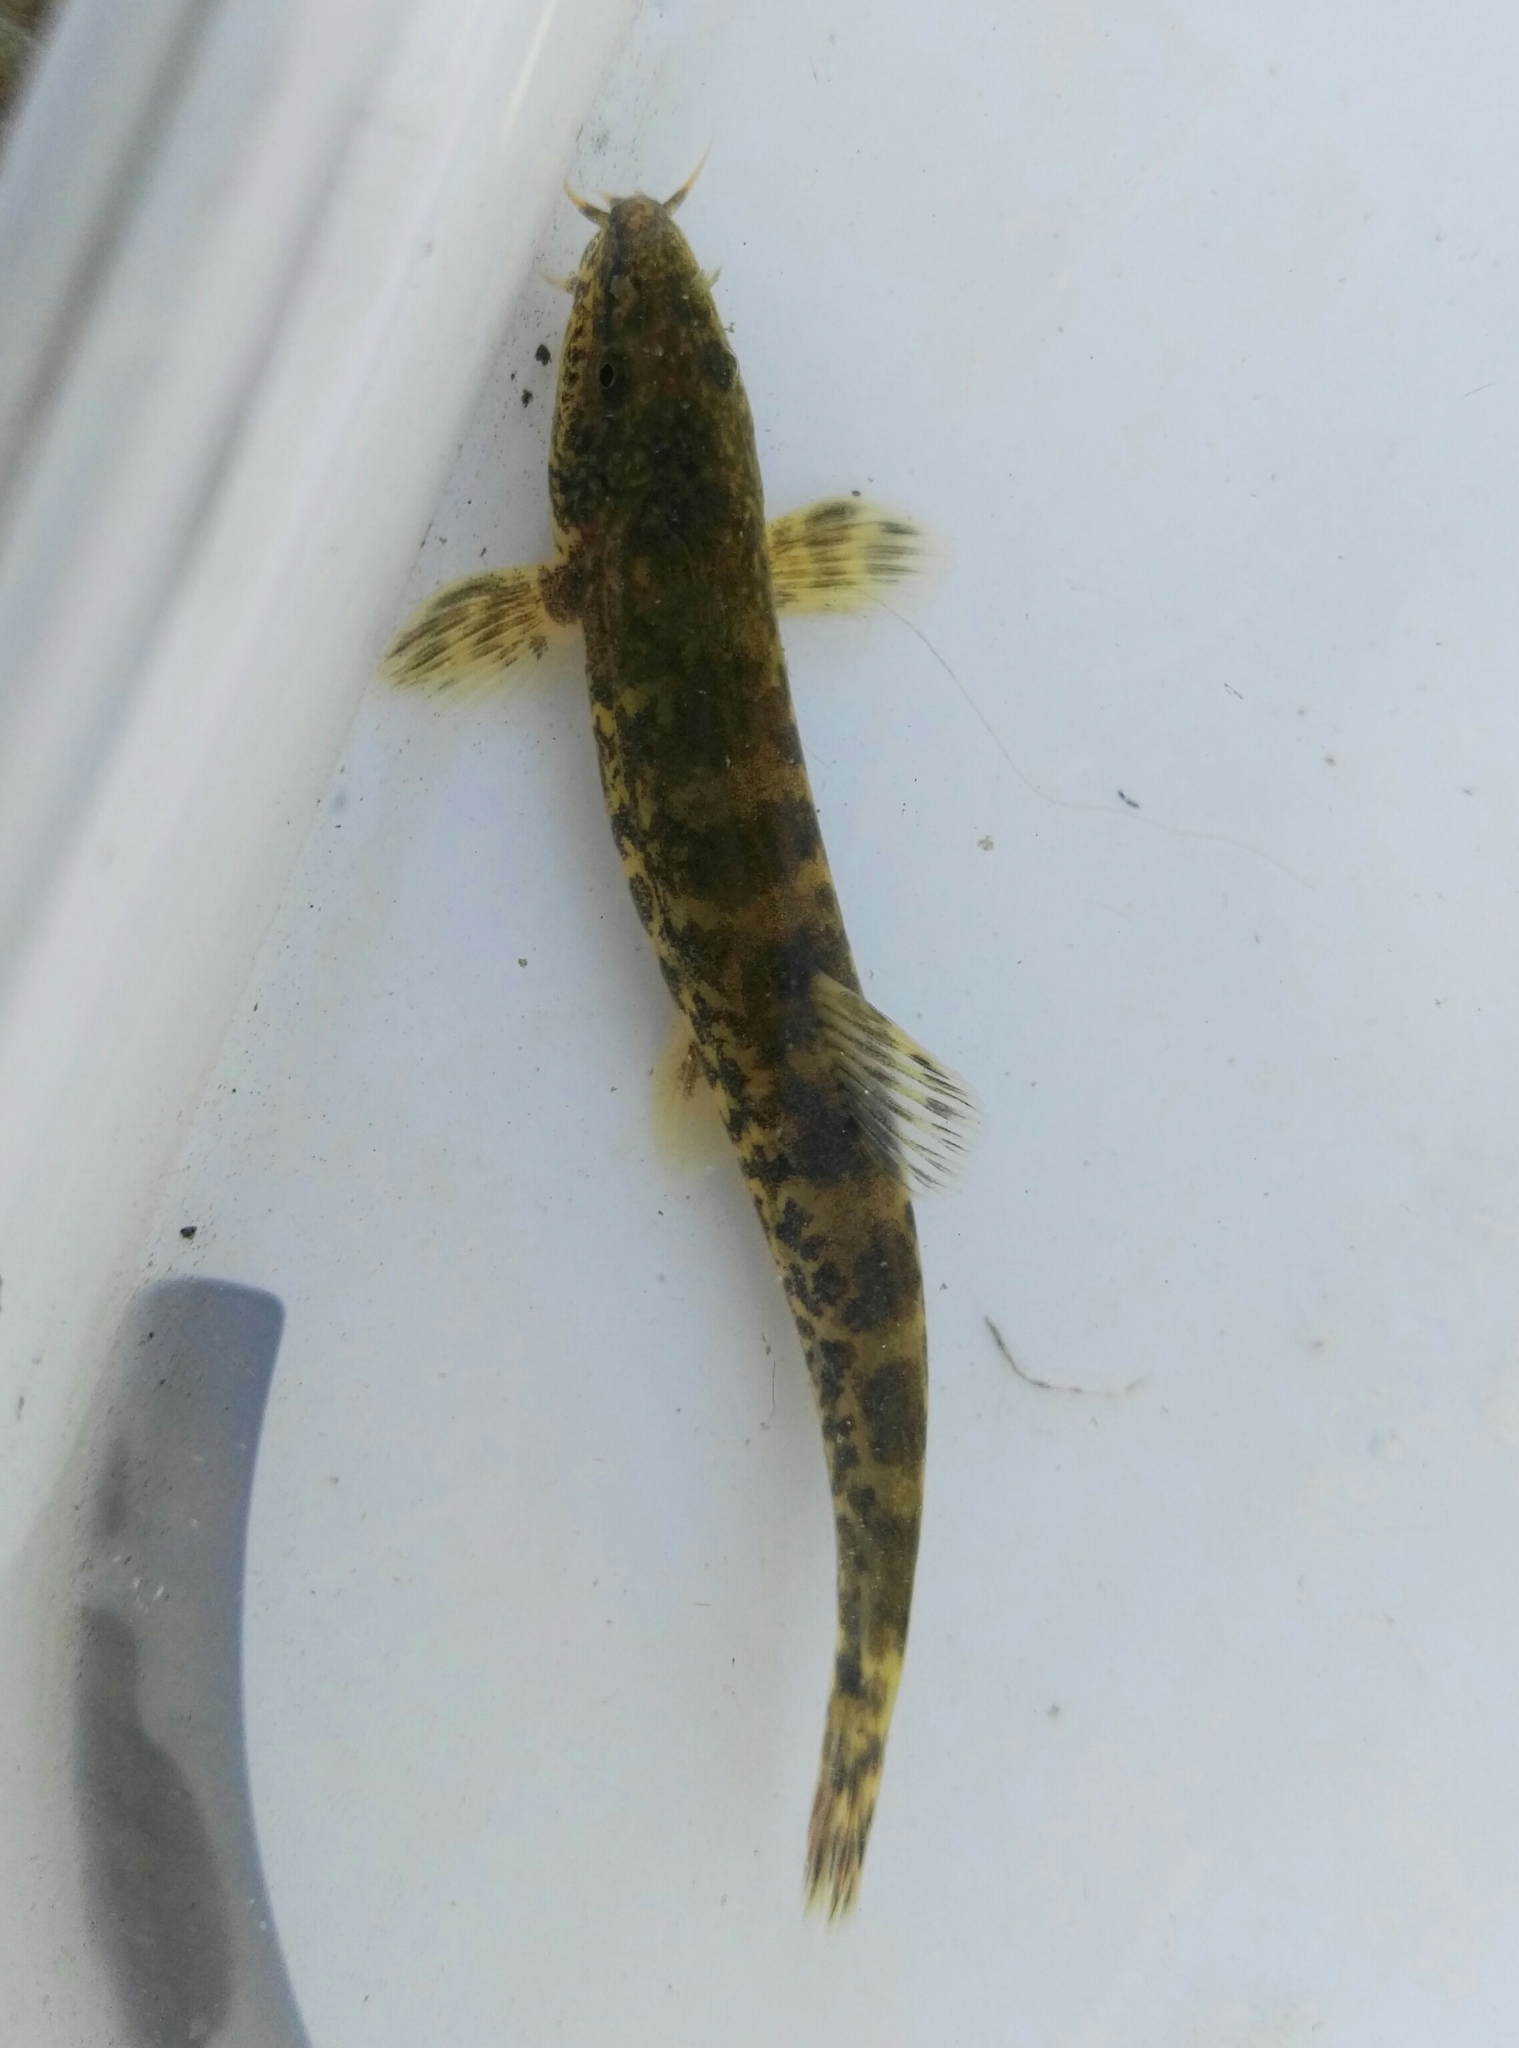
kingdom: Animalia
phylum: Chordata
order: Cypriniformes
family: Nemacheilidae
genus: Barbatula
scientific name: Barbatula barbatula
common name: Stone loach
